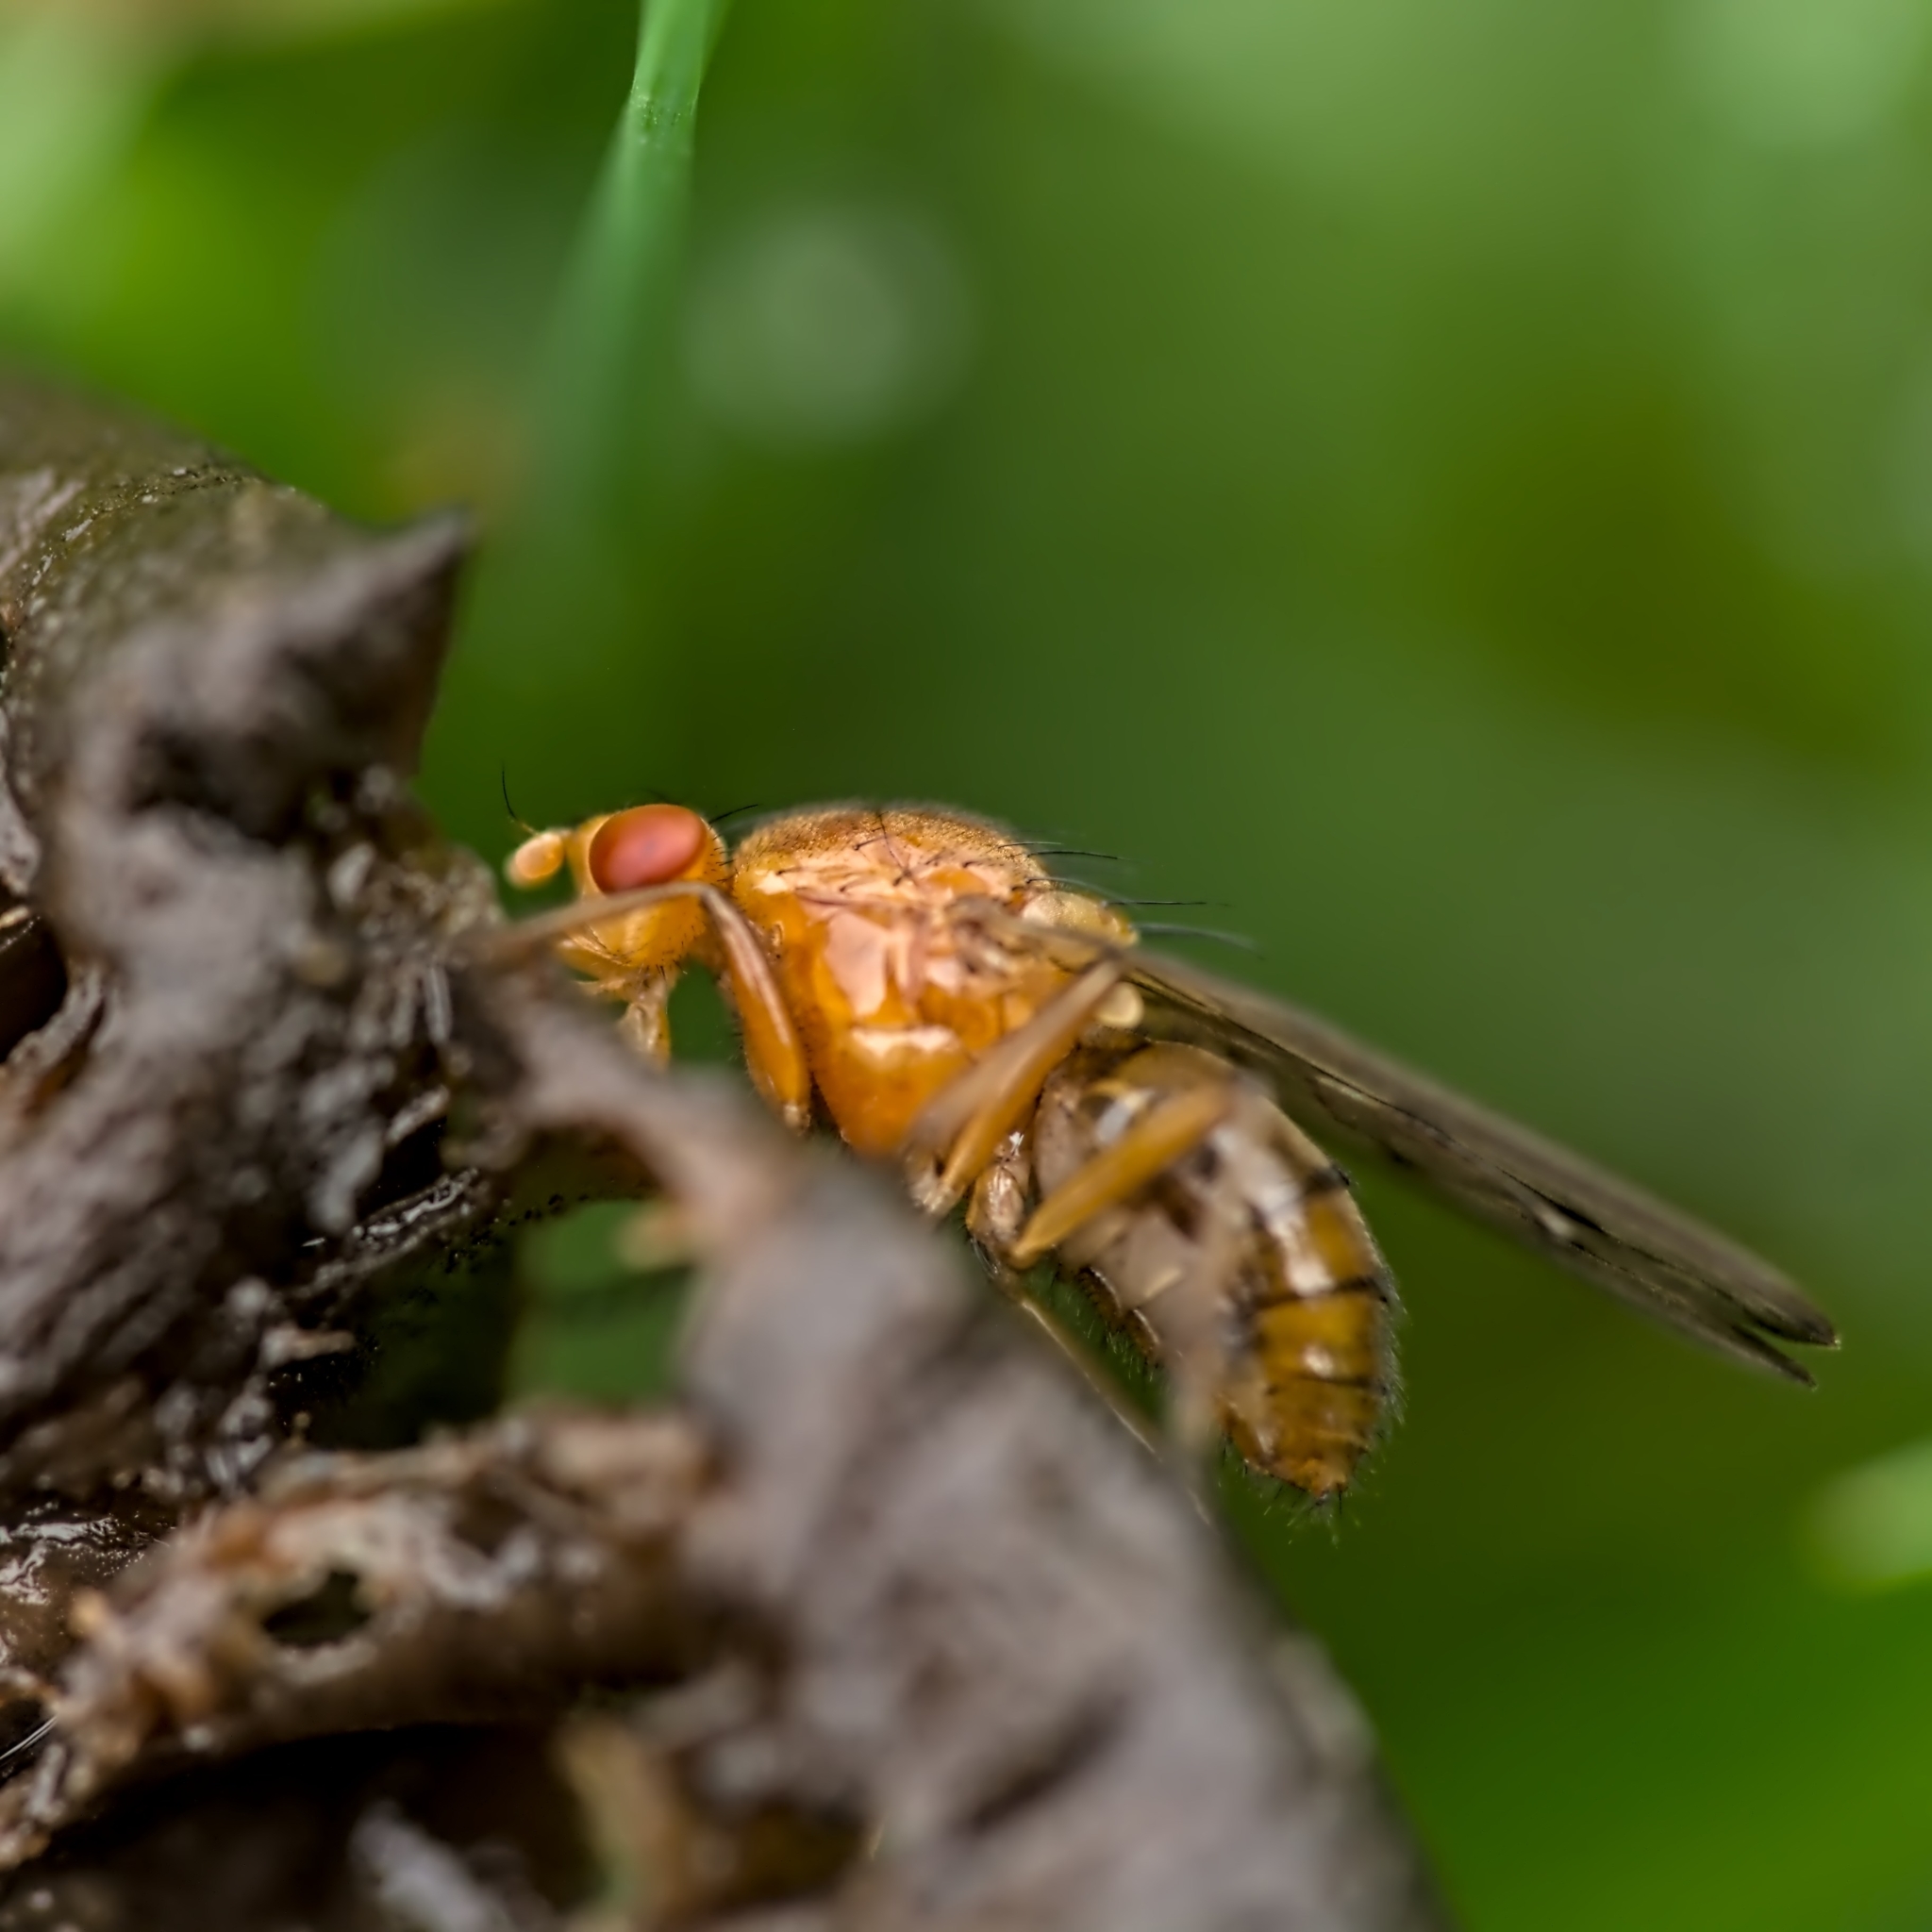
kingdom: Animalia
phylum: Arthropoda
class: Insecta
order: Diptera
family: Dryomyzidae
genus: Dryomyza
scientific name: Dryomyza anilis
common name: Marsh fly
